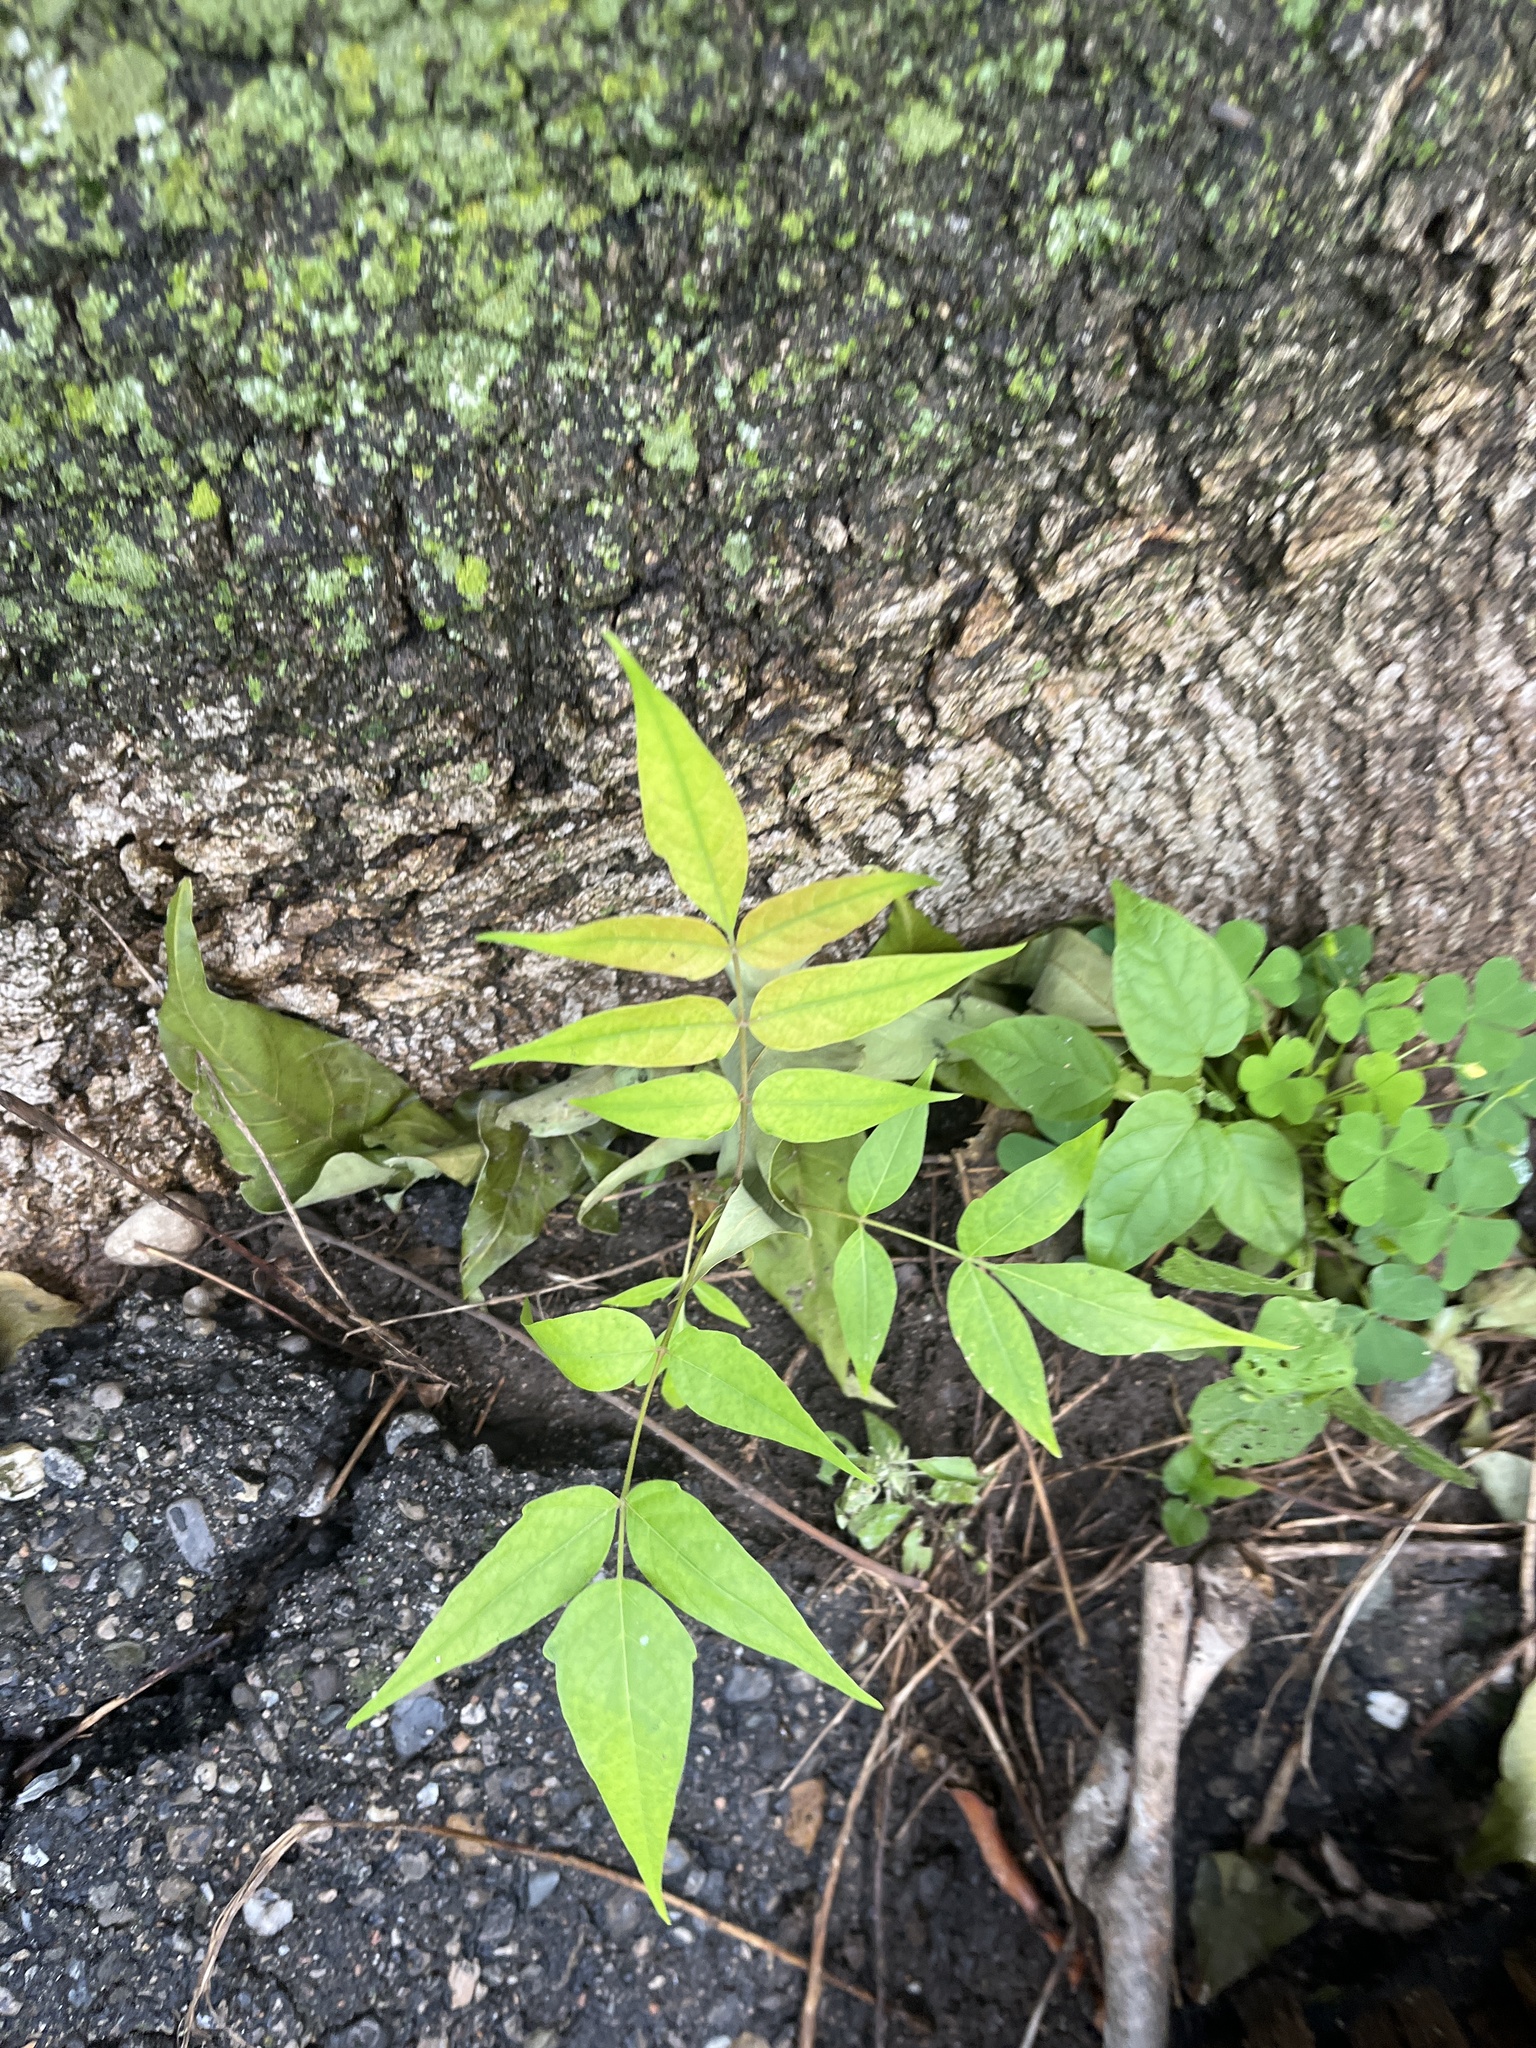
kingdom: Plantae
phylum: Tracheophyta
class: Magnoliopsida
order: Sapindales
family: Simaroubaceae
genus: Ailanthus
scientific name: Ailanthus altissima
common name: Tree-of-heaven
